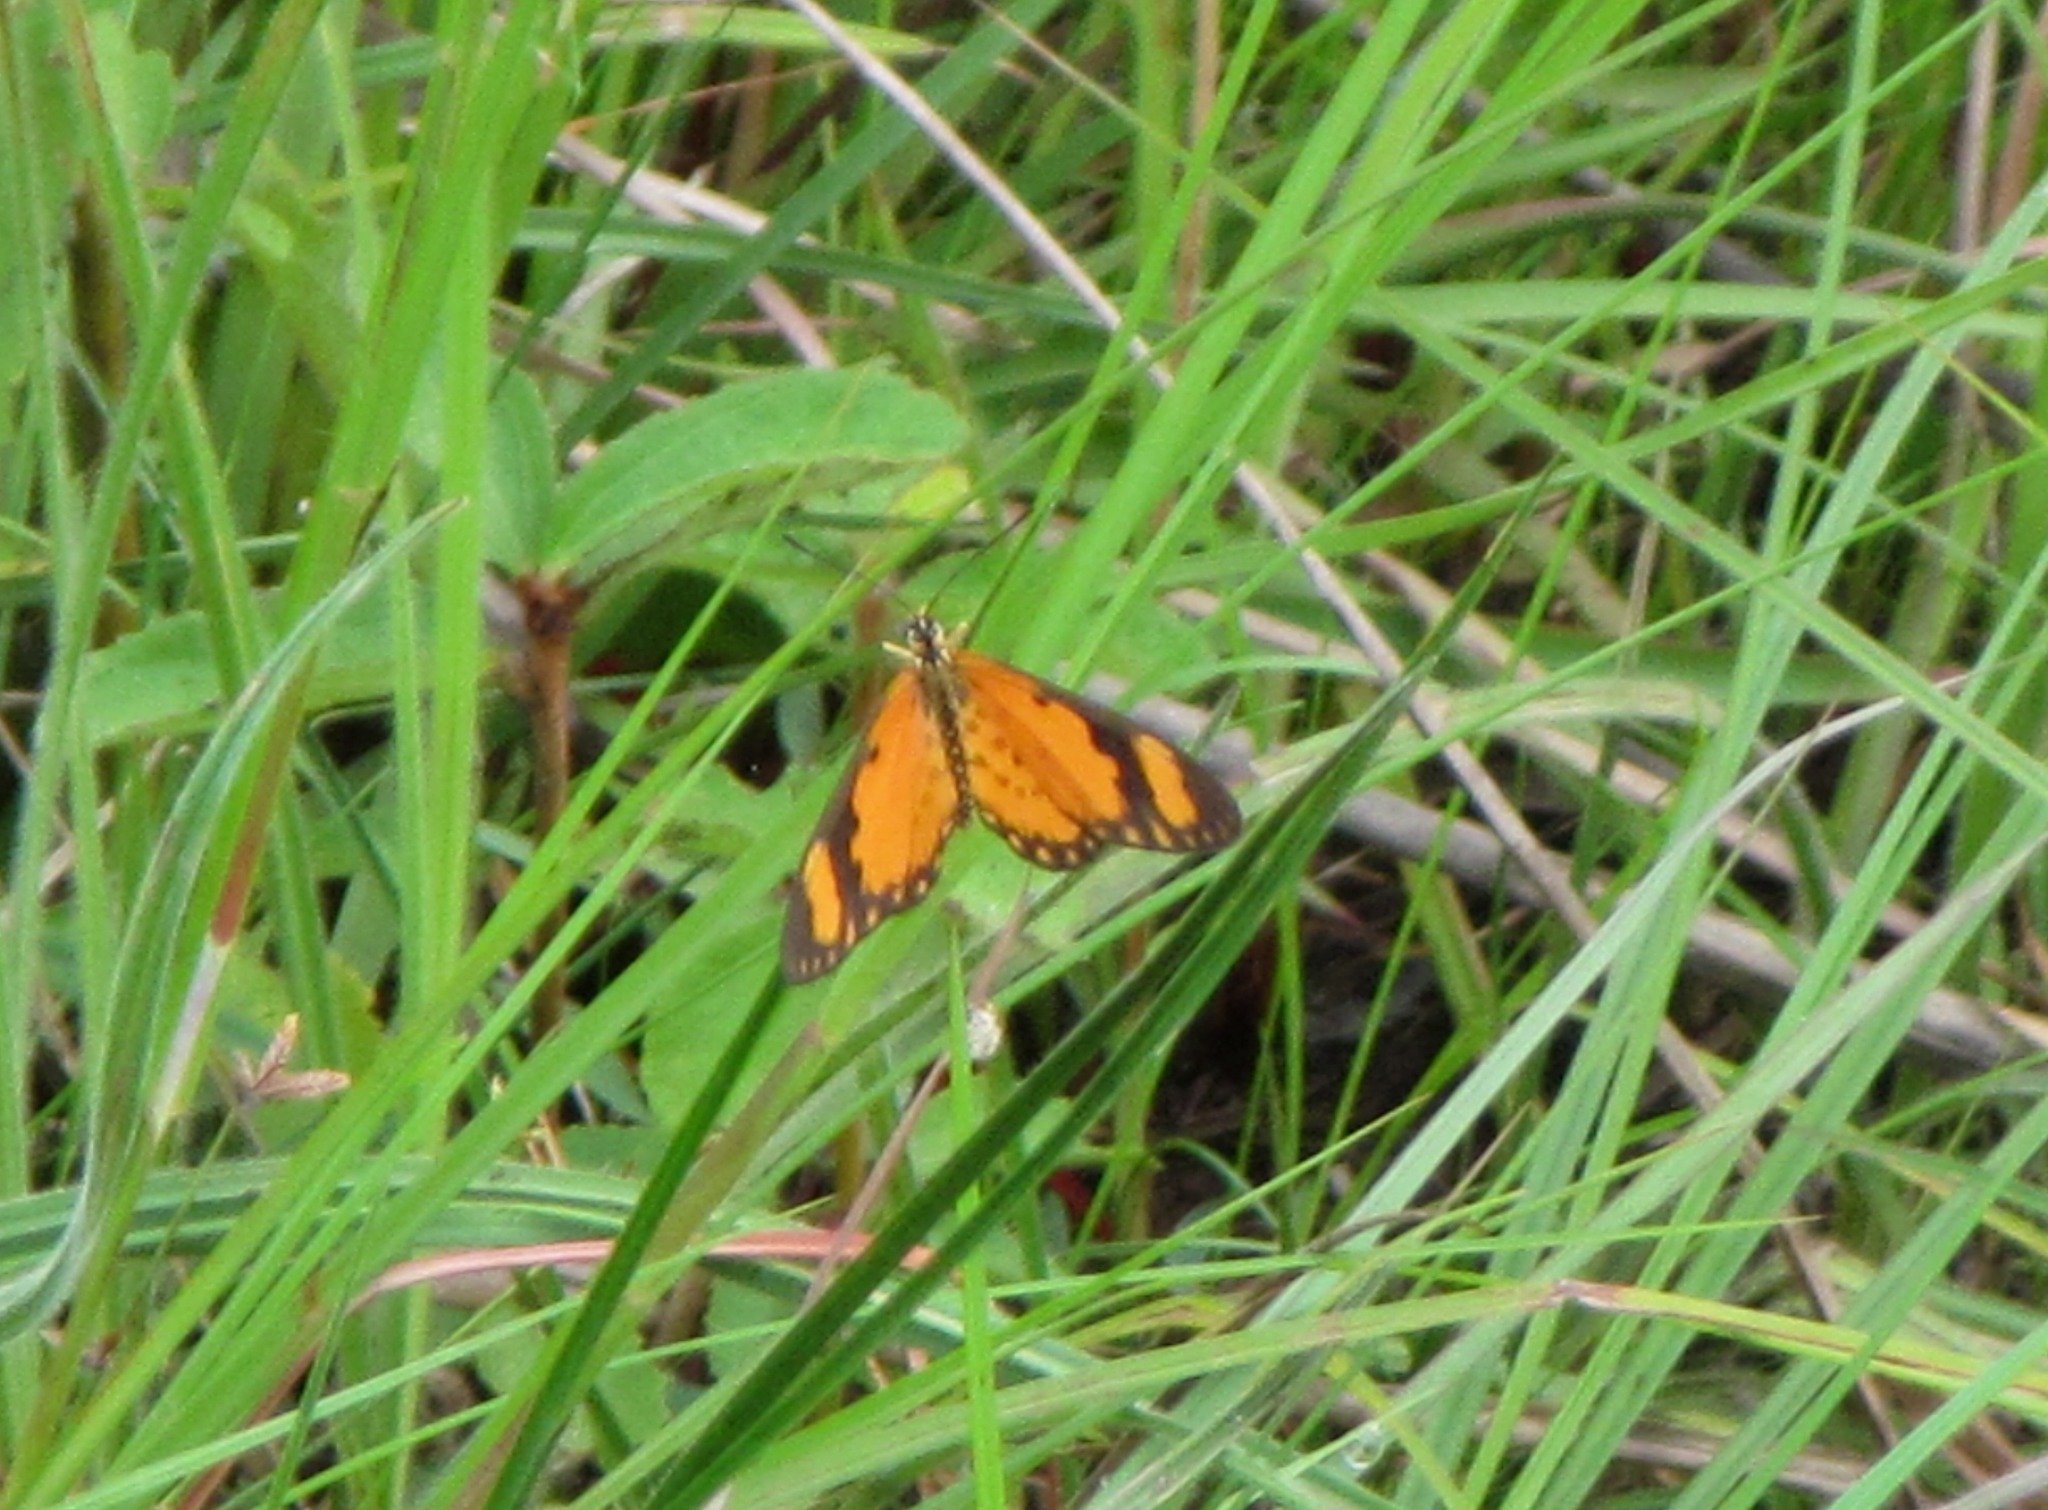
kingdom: Animalia
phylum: Arthropoda
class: Insecta
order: Lepidoptera
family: Nymphalidae
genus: Acraea
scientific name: Acraea Telchinia serena
